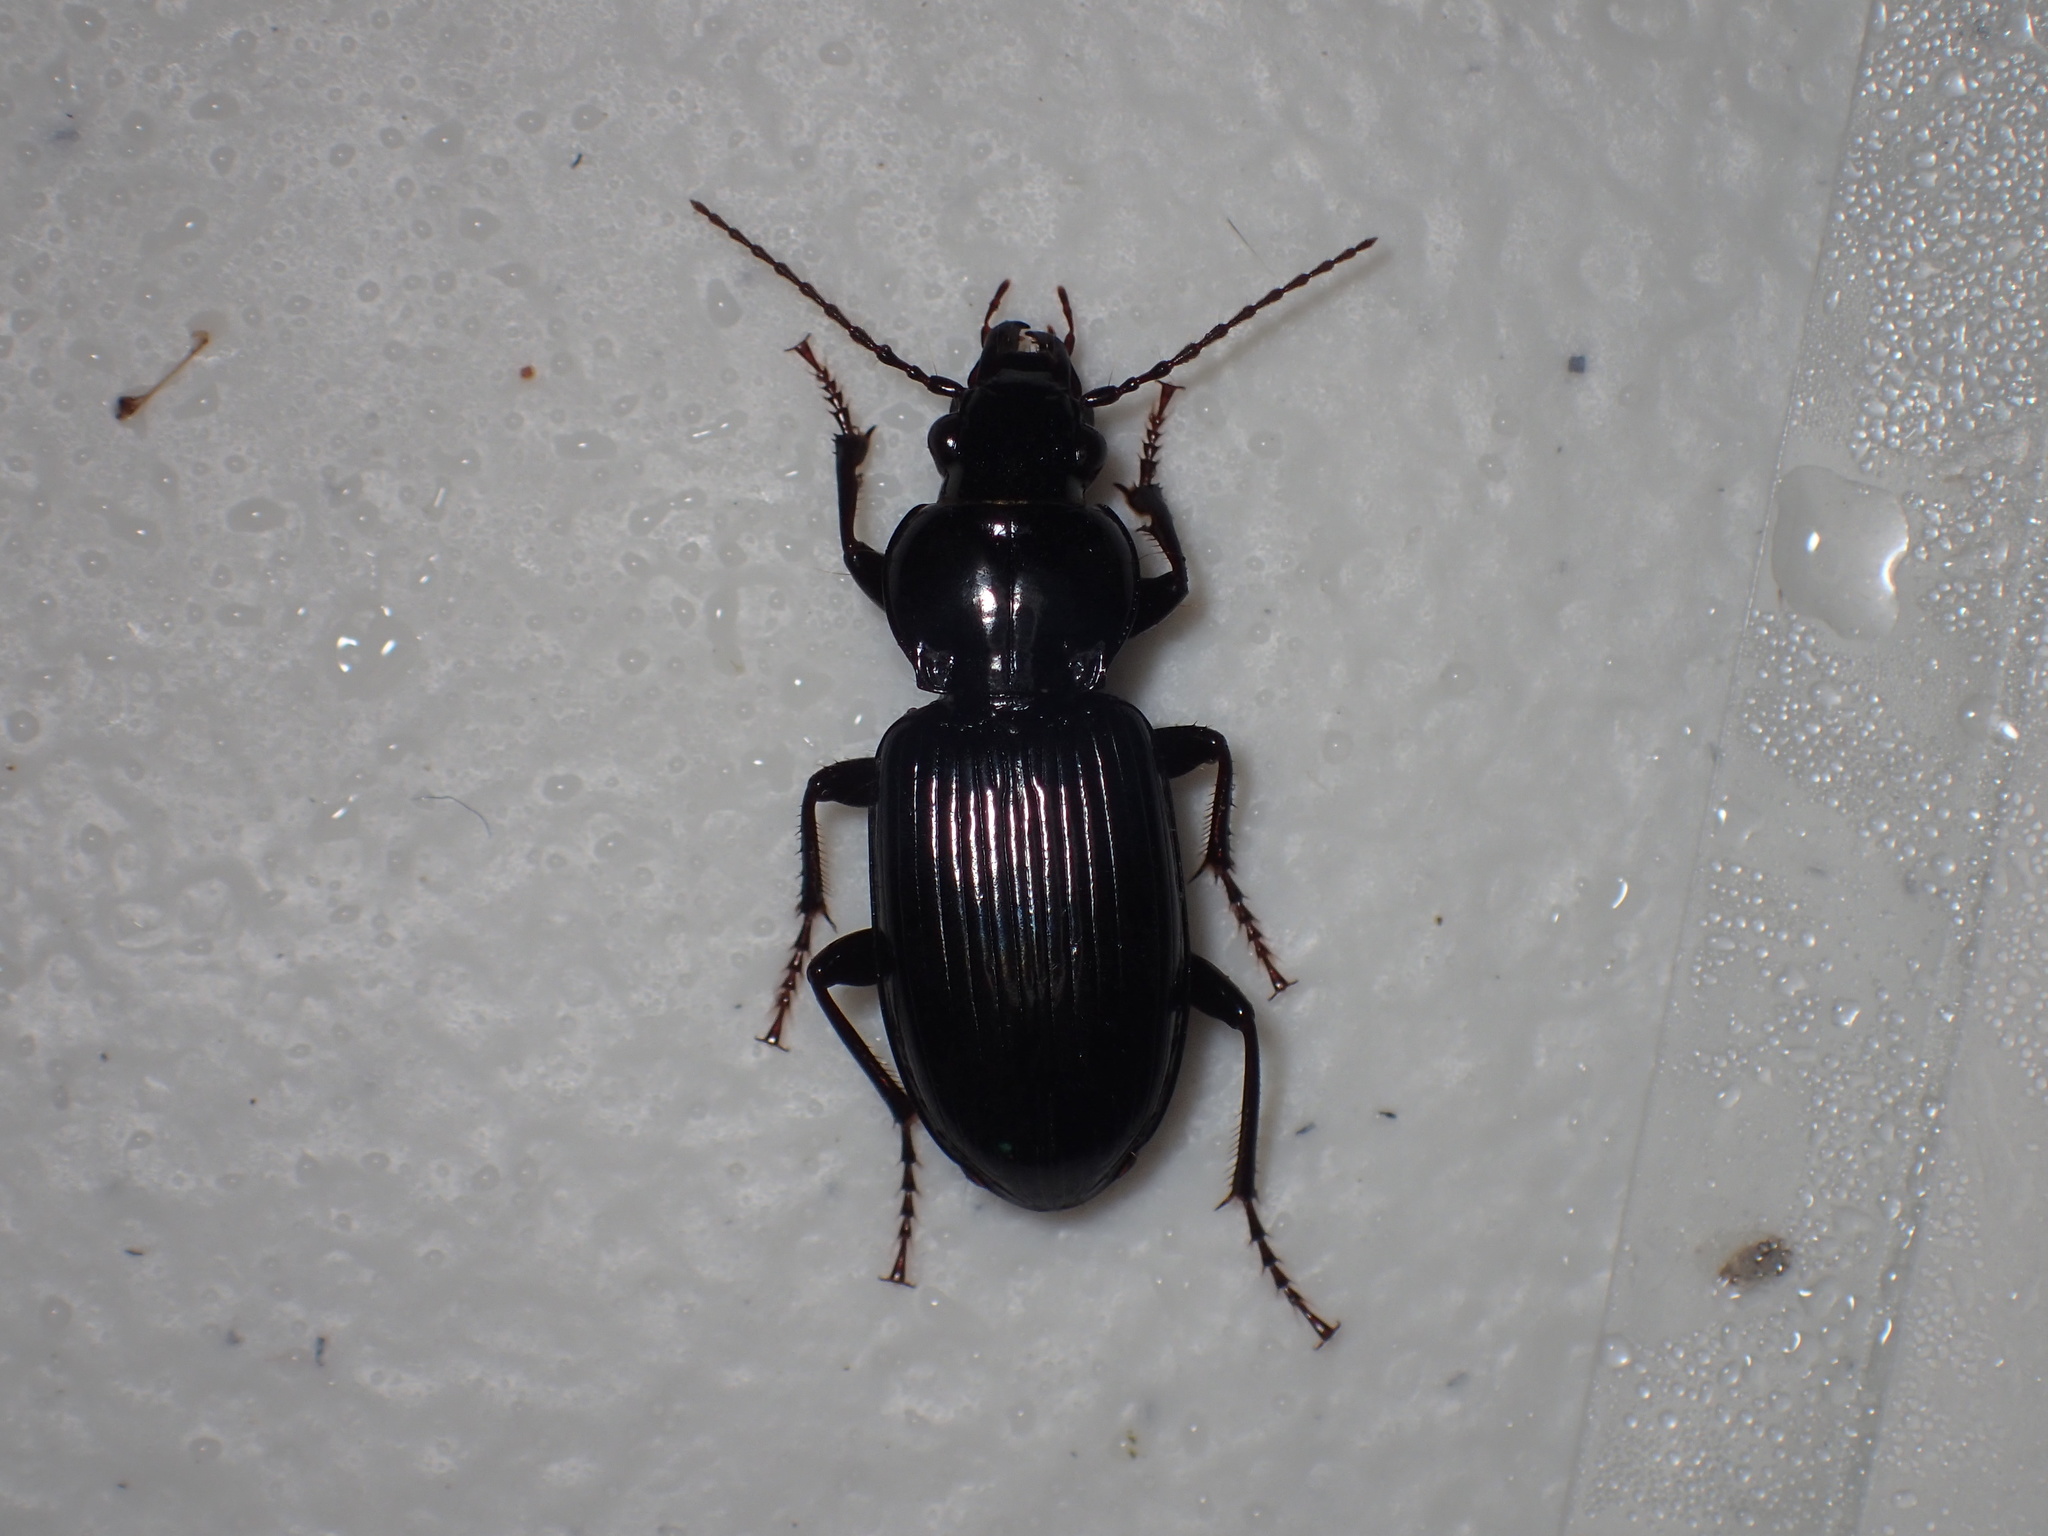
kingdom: Animalia
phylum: Arthropoda
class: Insecta
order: Coleoptera
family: Carabidae
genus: Pterostichus
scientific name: Pterostichus ebeninus
